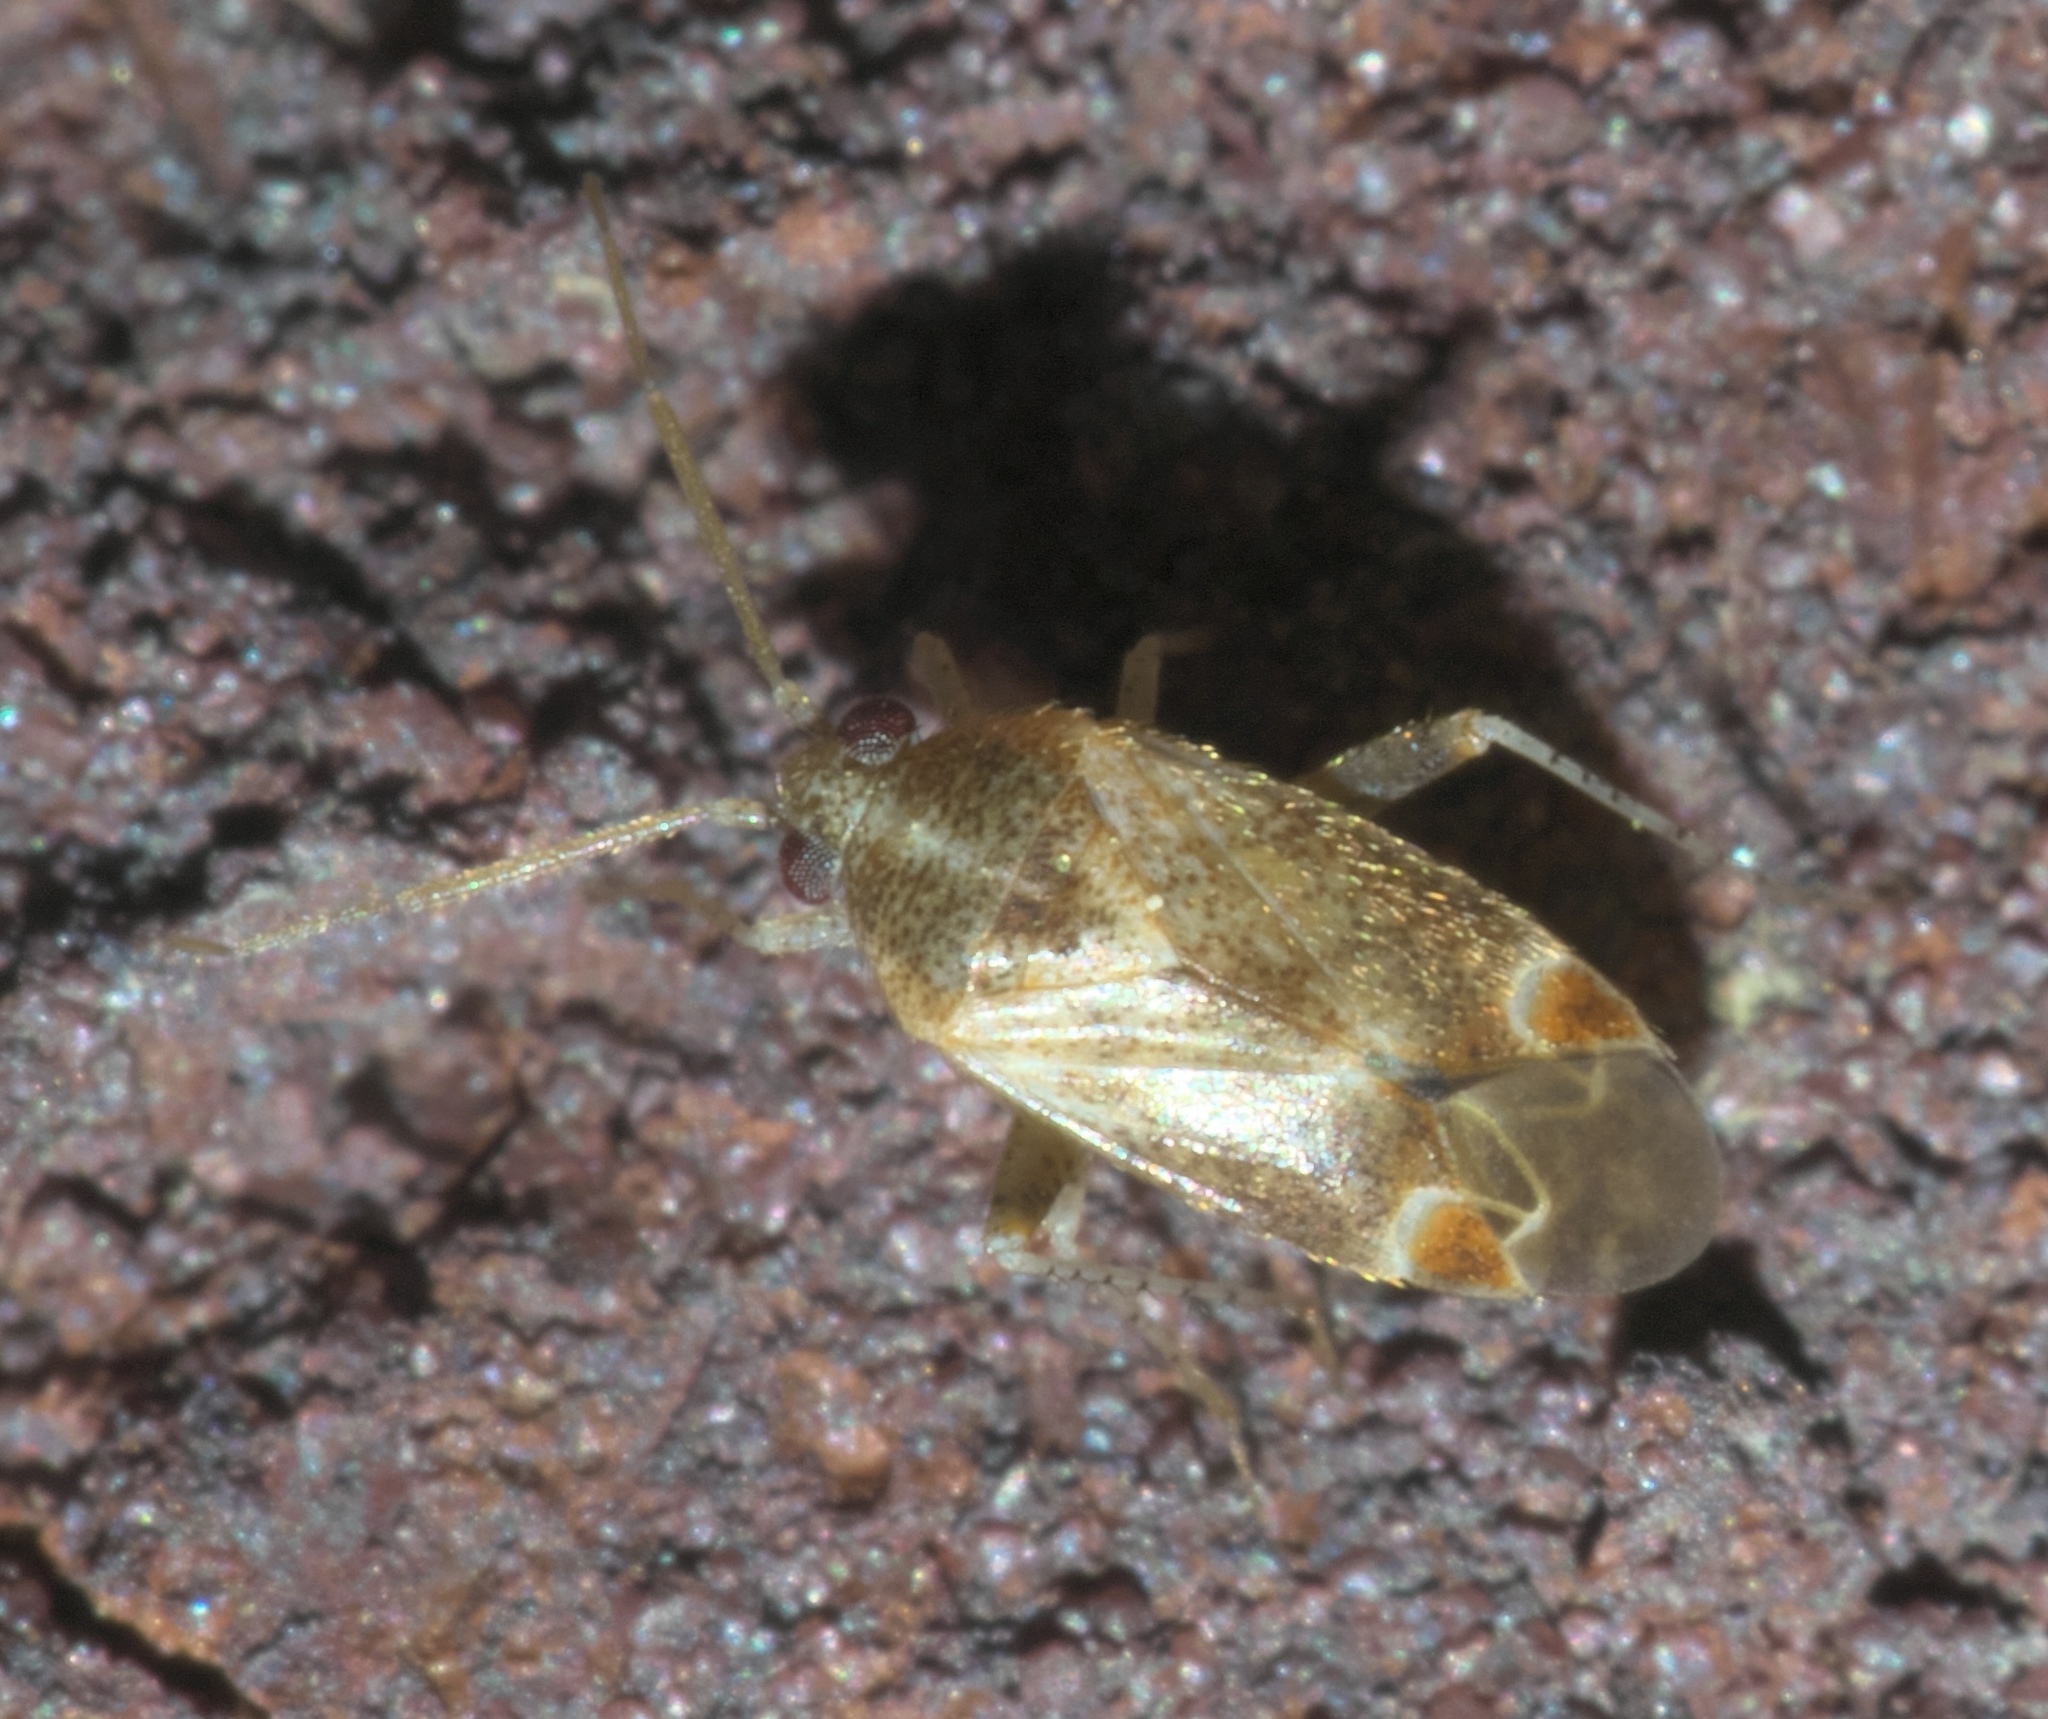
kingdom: Animalia
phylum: Arthropoda
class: Insecta
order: Hemiptera
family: Miridae
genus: Hamatophylus
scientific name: Hamatophylus guttulosus
